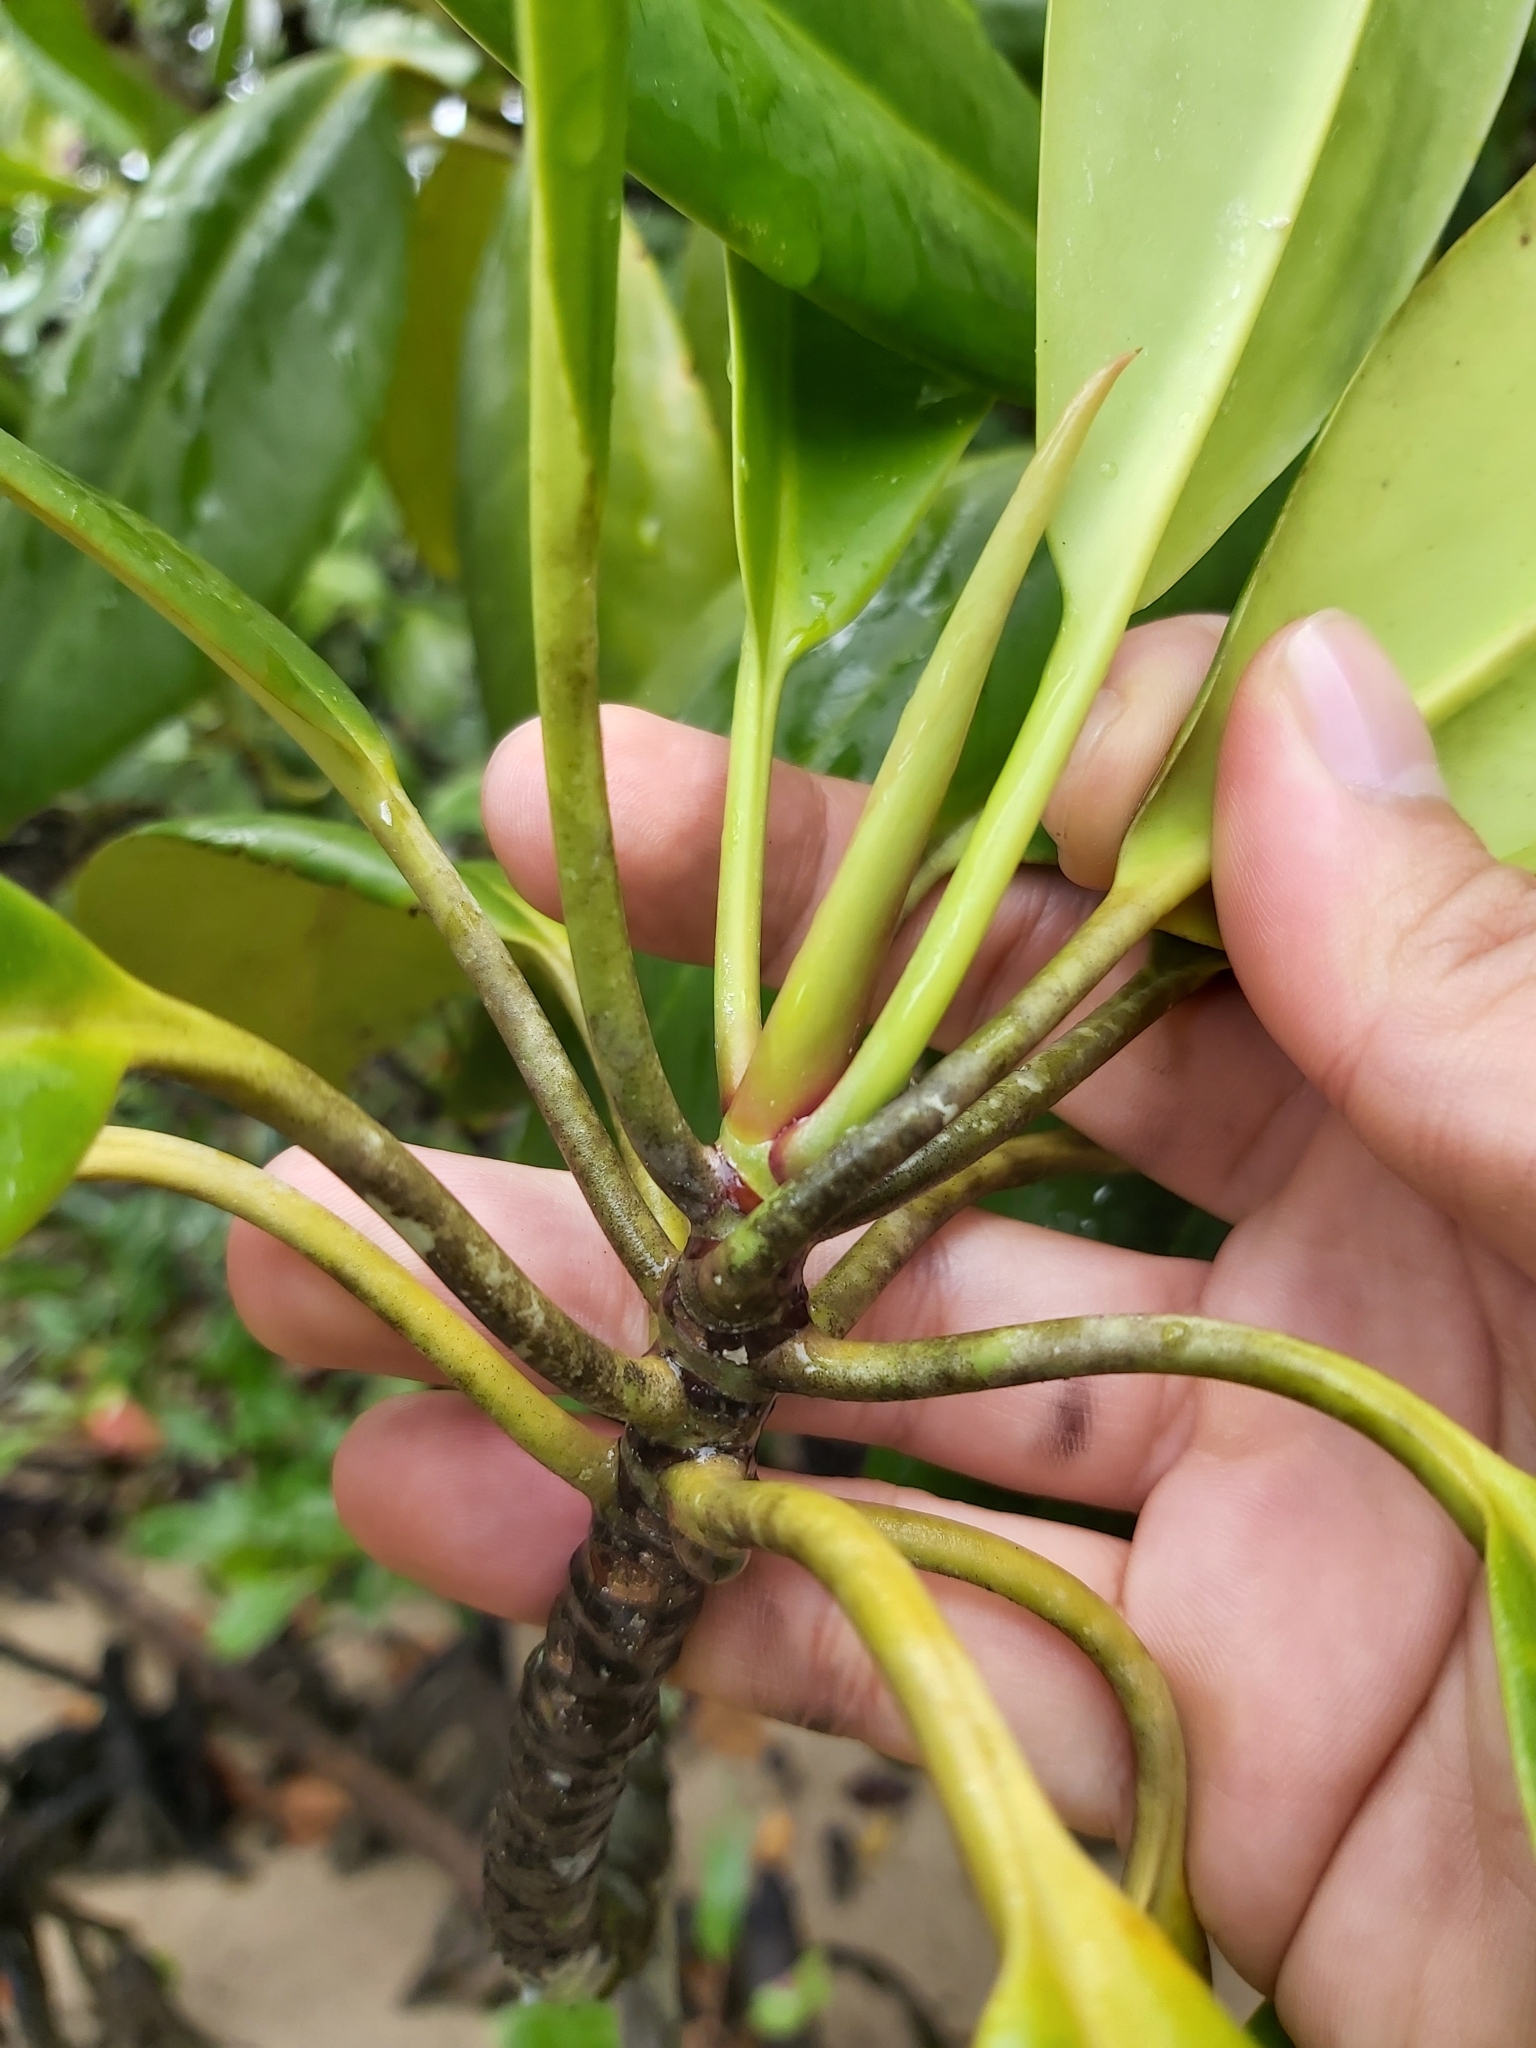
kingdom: Plantae
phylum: Tracheophyta
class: Magnoliopsida
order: Malpighiales
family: Rhizophoraceae
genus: Bruguiera
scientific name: Bruguiera gymnorhiza
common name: Oriental mangrove
